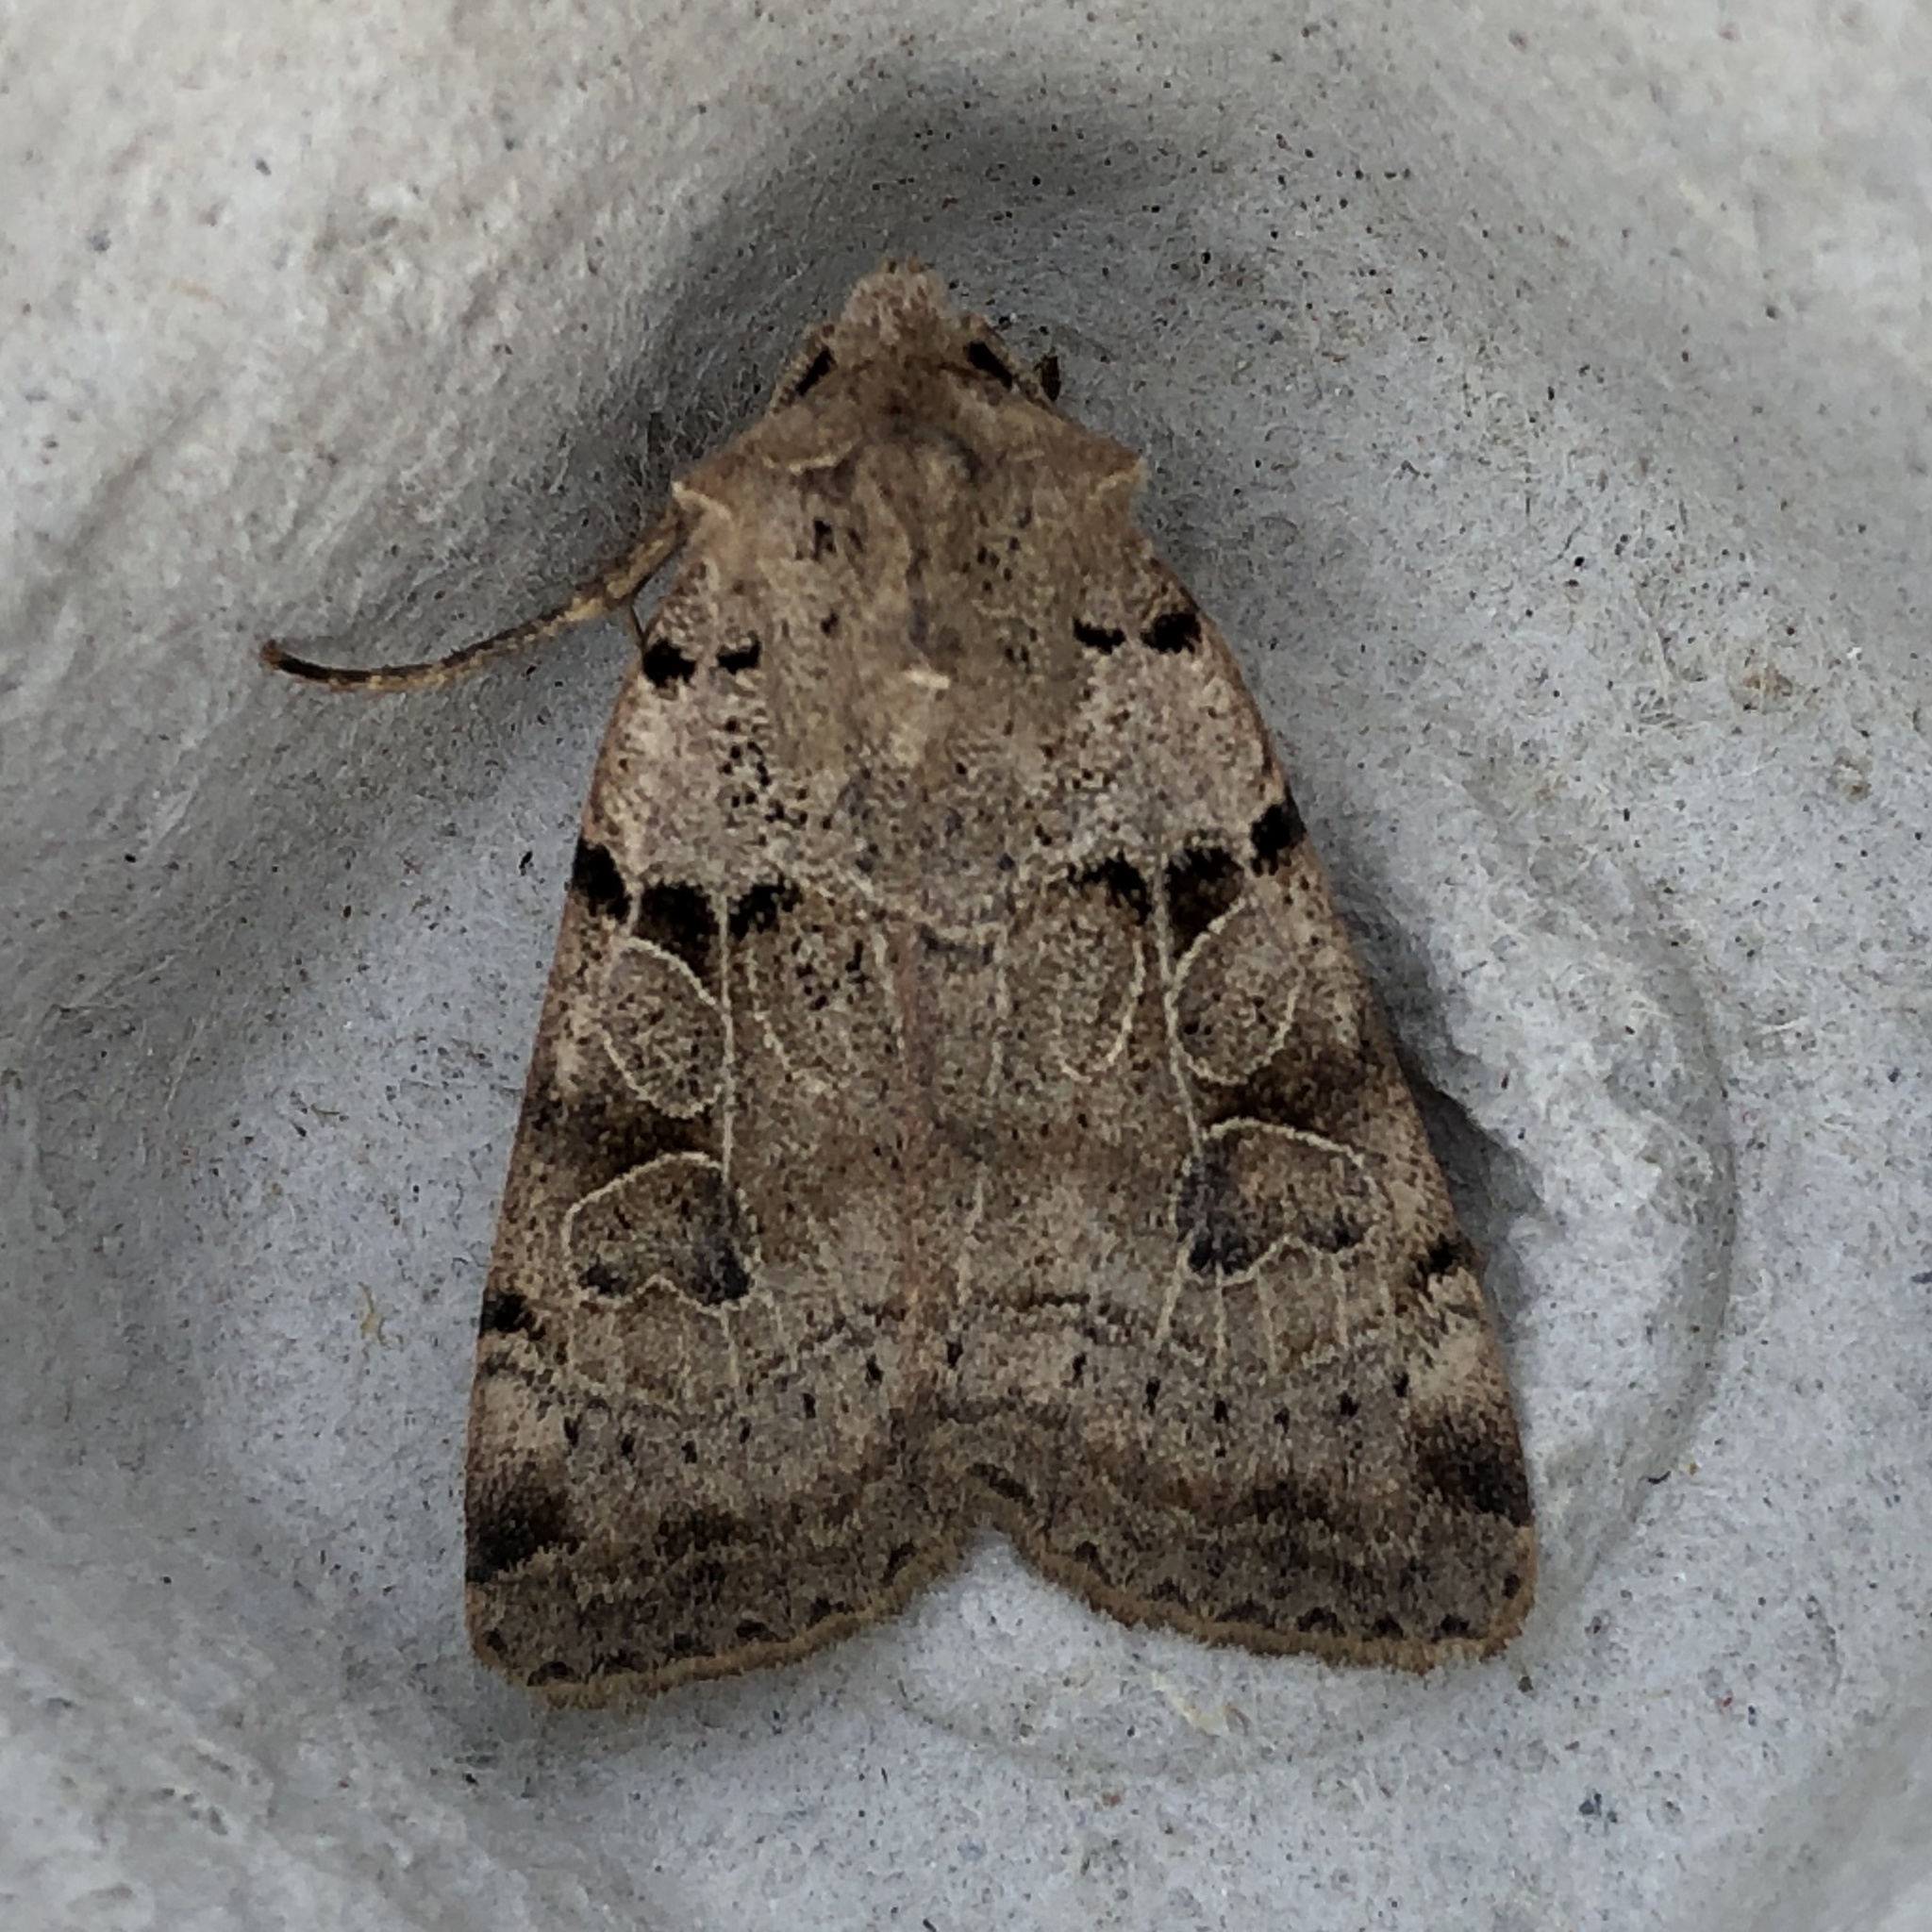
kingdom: Animalia
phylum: Arthropoda
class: Insecta
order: Lepidoptera
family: Noctuidae
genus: Eugnorisma
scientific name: Eugnorisma depuncta
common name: Plain clay
